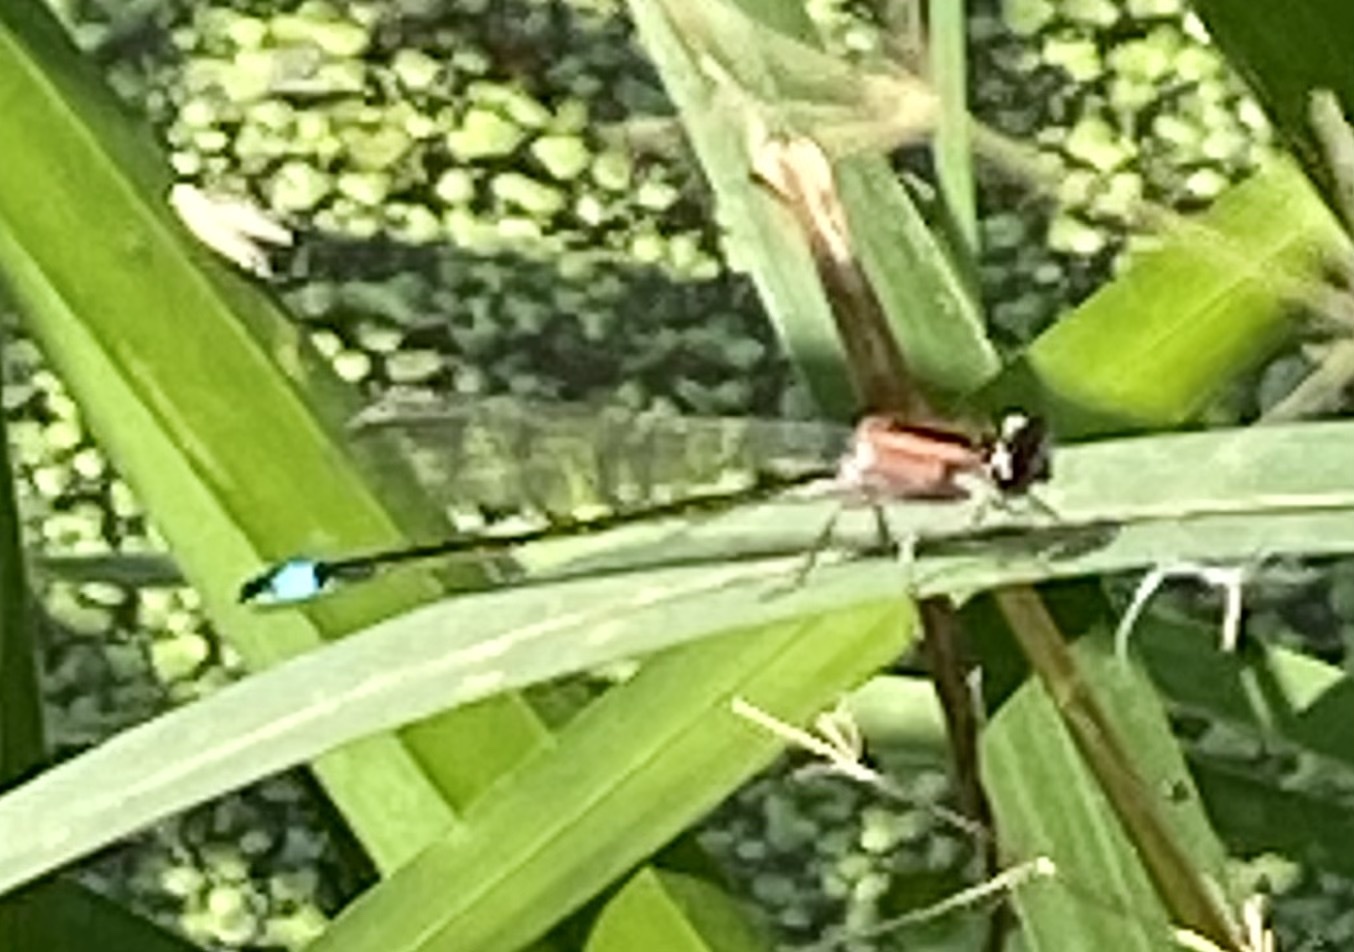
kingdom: Animalia
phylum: Arthropoda
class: Insecta
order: Odonata
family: Coenagrionidae
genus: Ischnura
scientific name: Ischnura elegans
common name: Blue-tailed damselfly
